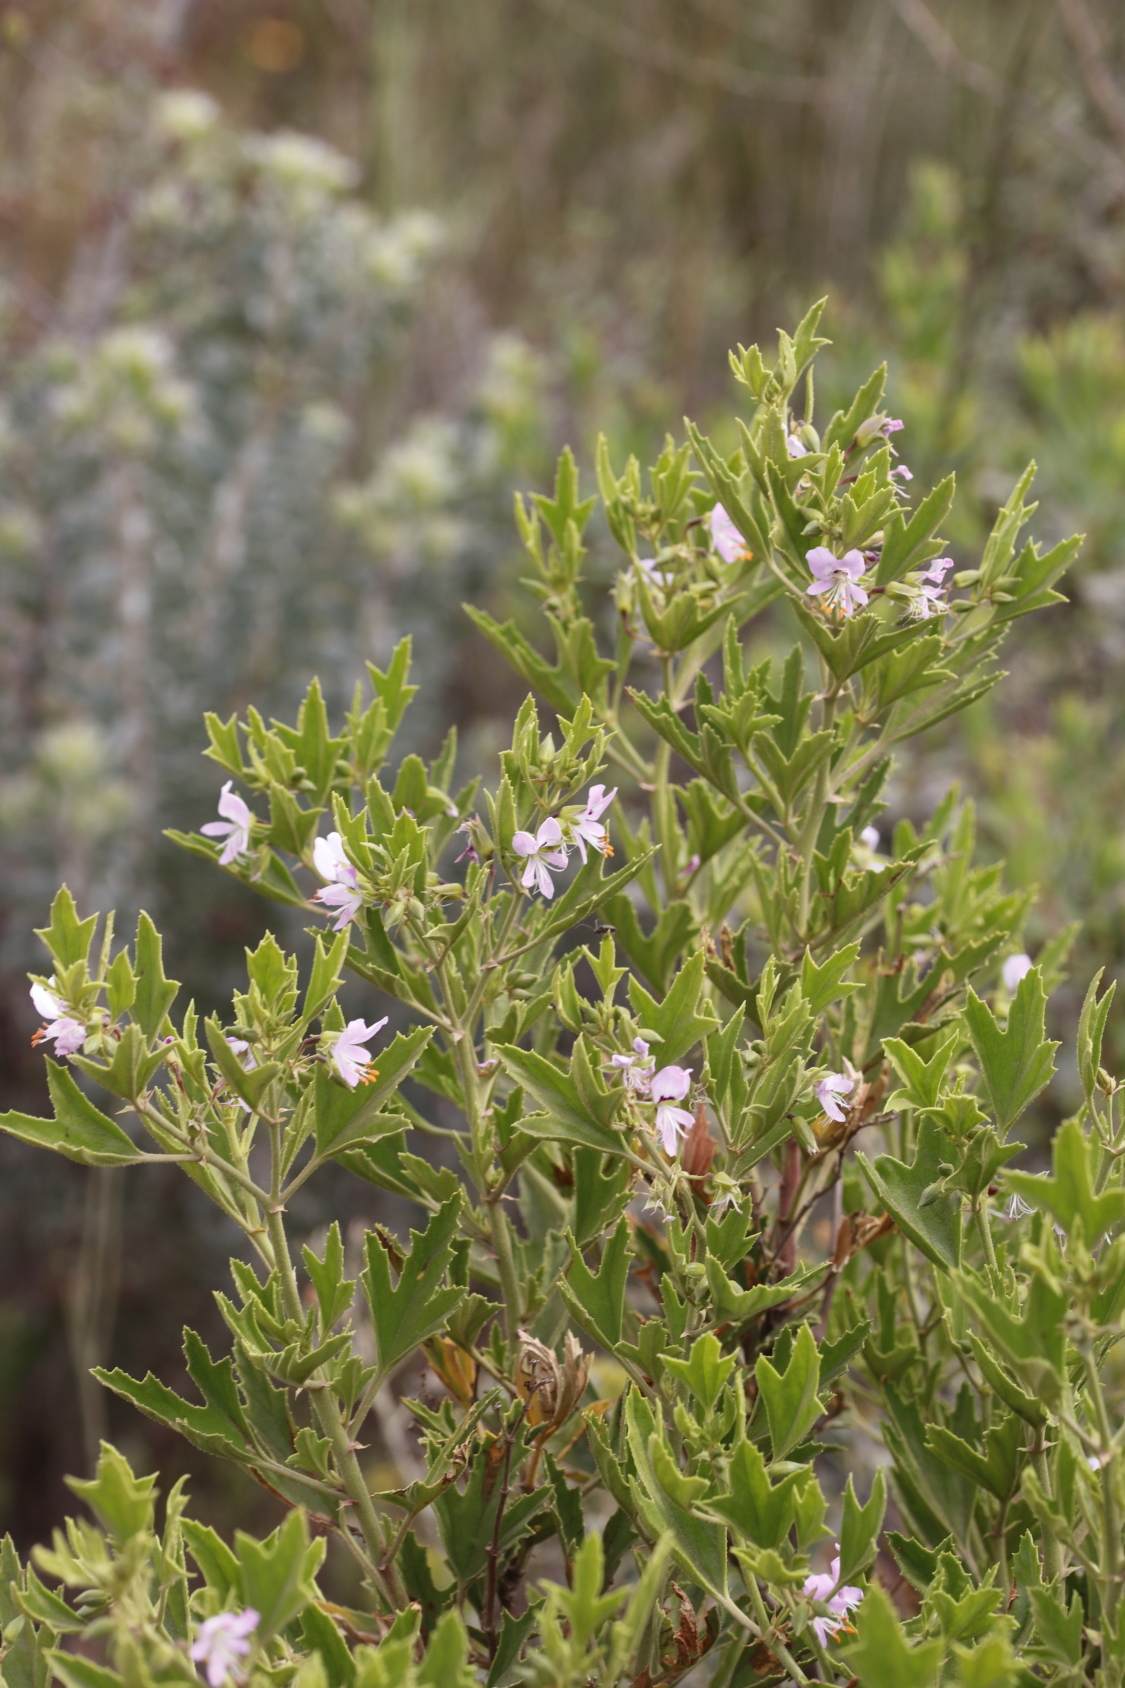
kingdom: Plantae
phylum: Tracheophyta
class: Magnoliopsida
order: Geraniales
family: Geraniaceae
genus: Pelargonium
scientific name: Pelargonium scabrum
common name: Apricot geranium
